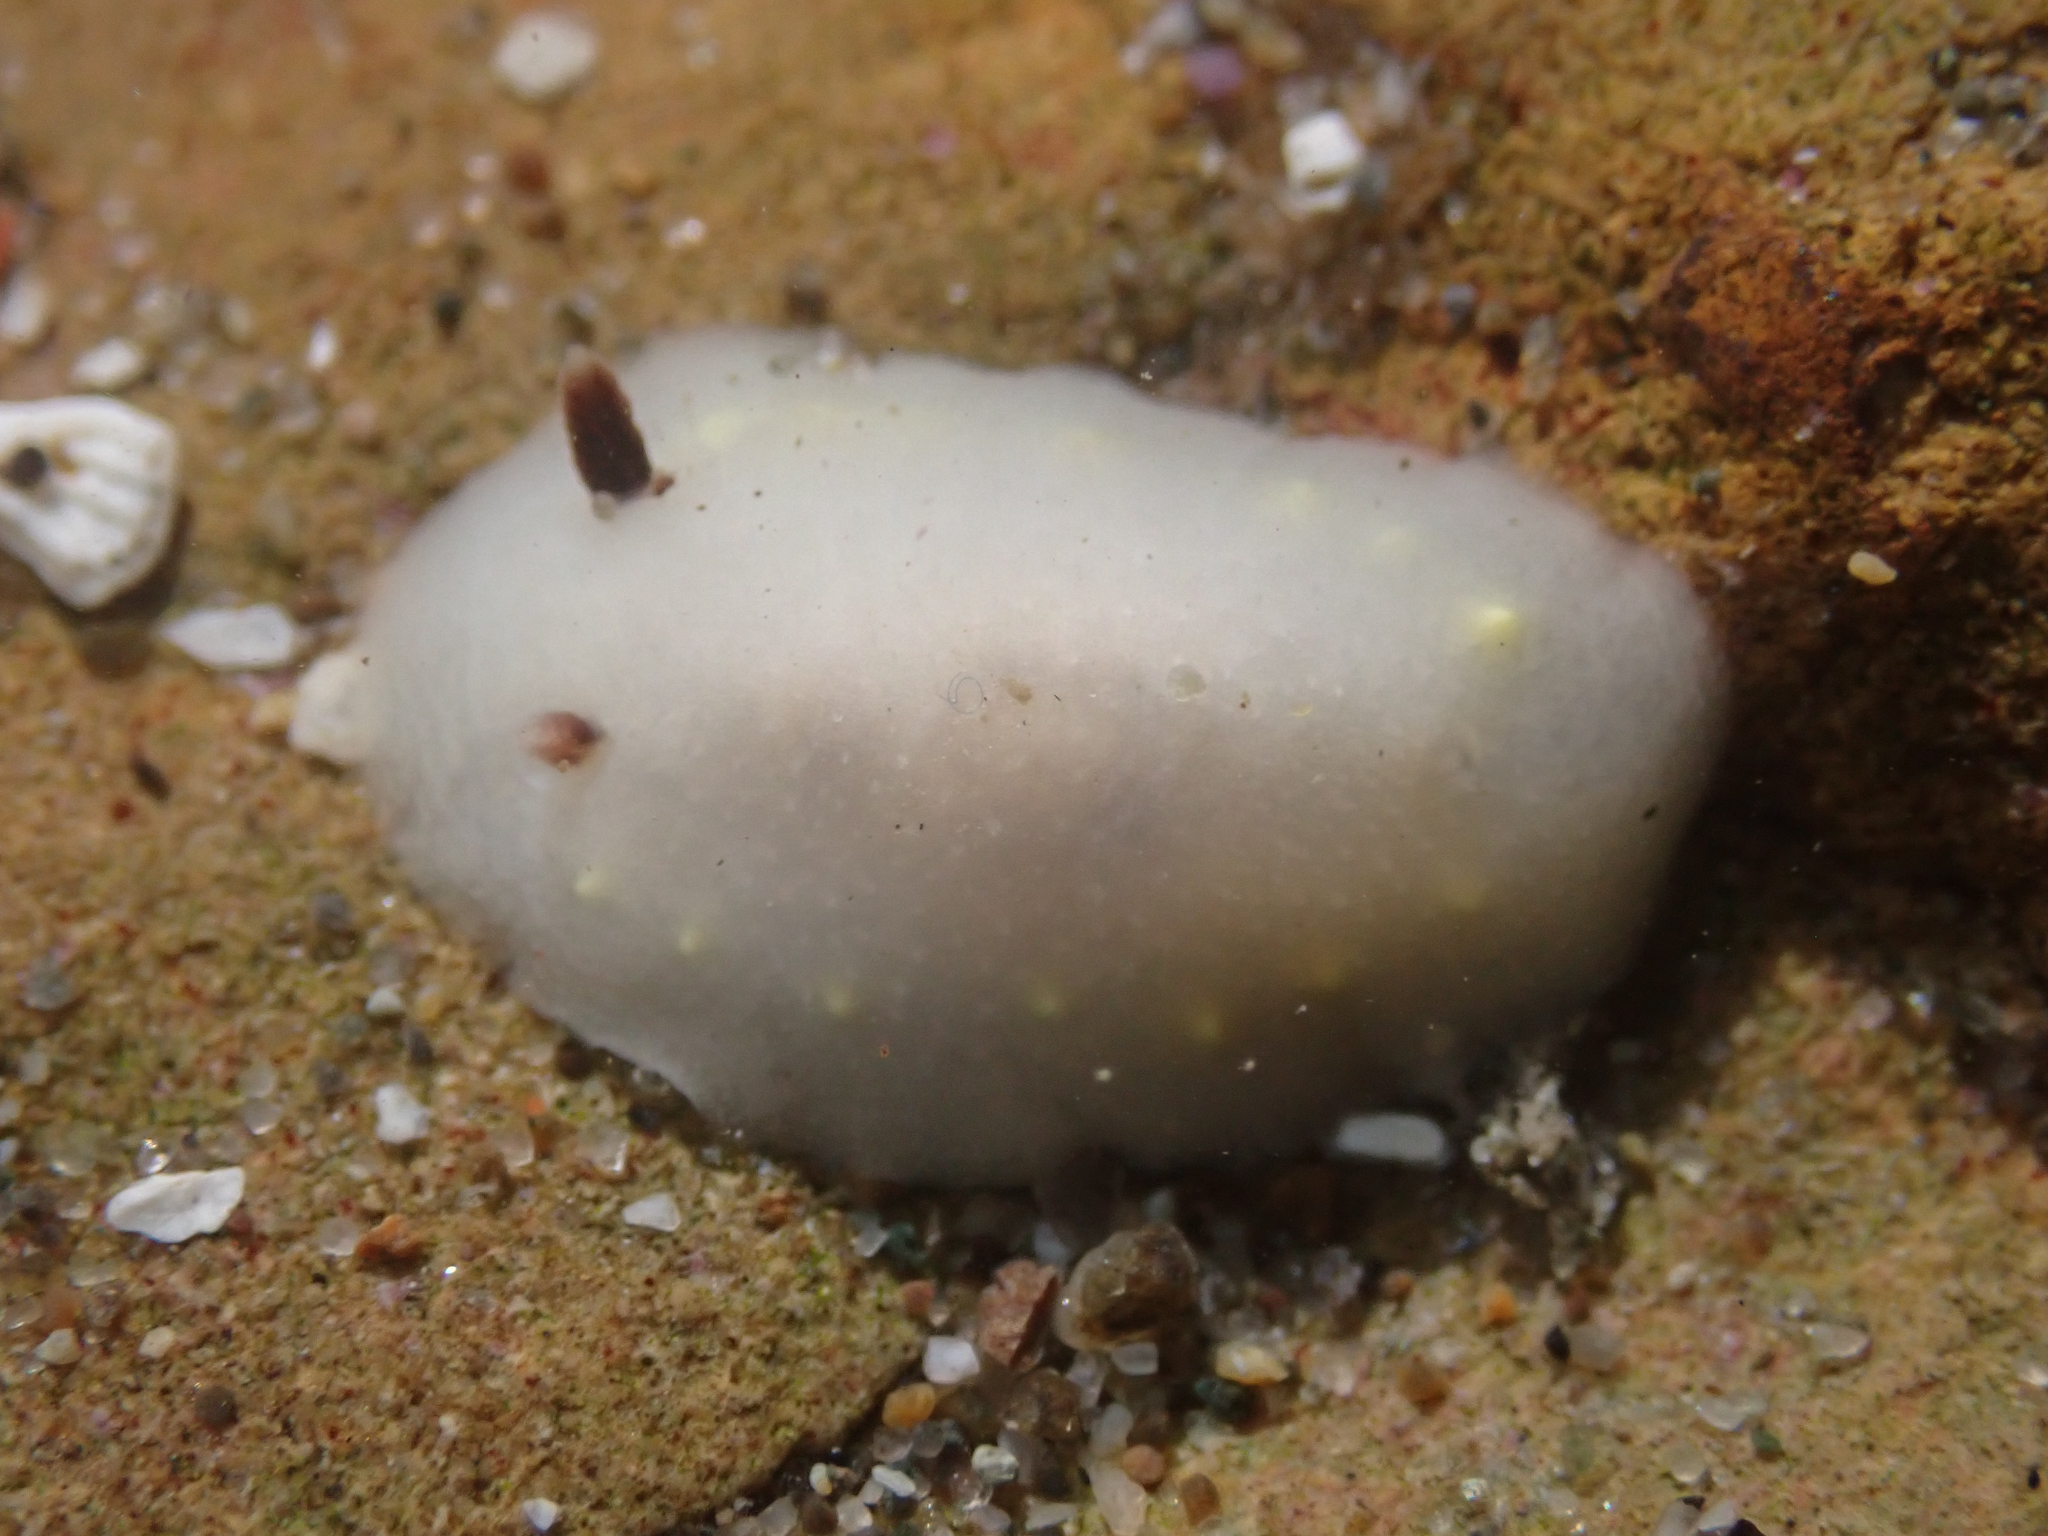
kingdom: Animalia
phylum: Mollusca
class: Gastropoda
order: Nudibranchia
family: Cadlinidae
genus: Cadlina
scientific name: Cadlina flavomaculata
